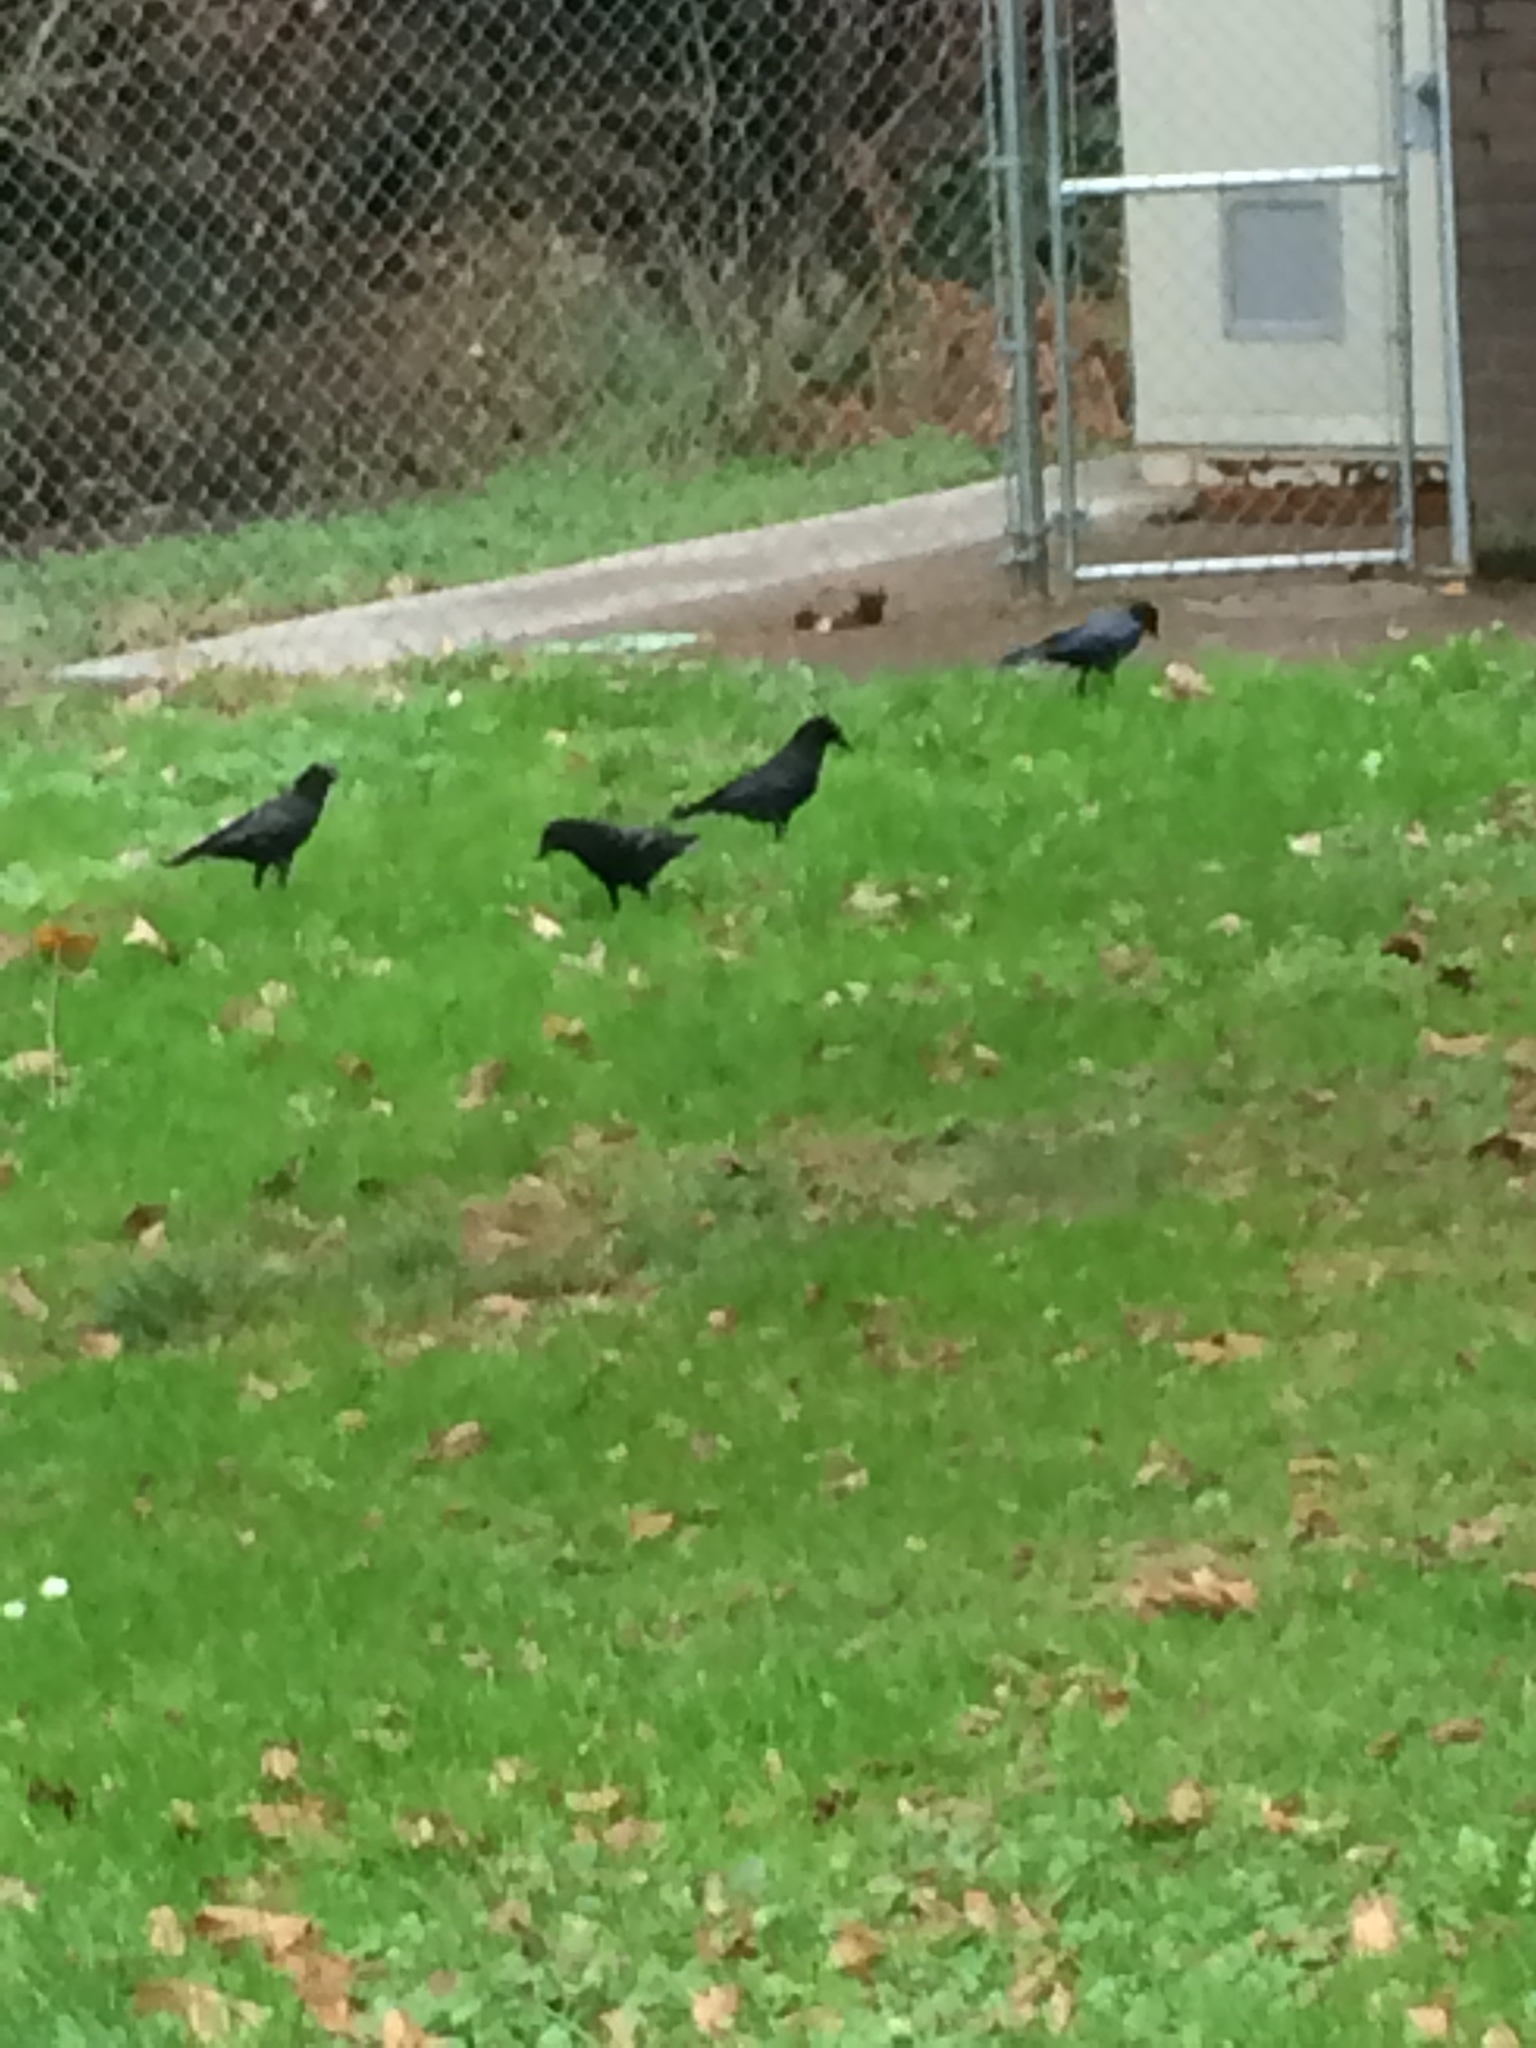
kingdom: Animalia
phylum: Chordata
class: Aves
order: Passeriformes
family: Corvidae
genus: Corvus
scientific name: Corvus brachyrhynchos
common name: American crow
